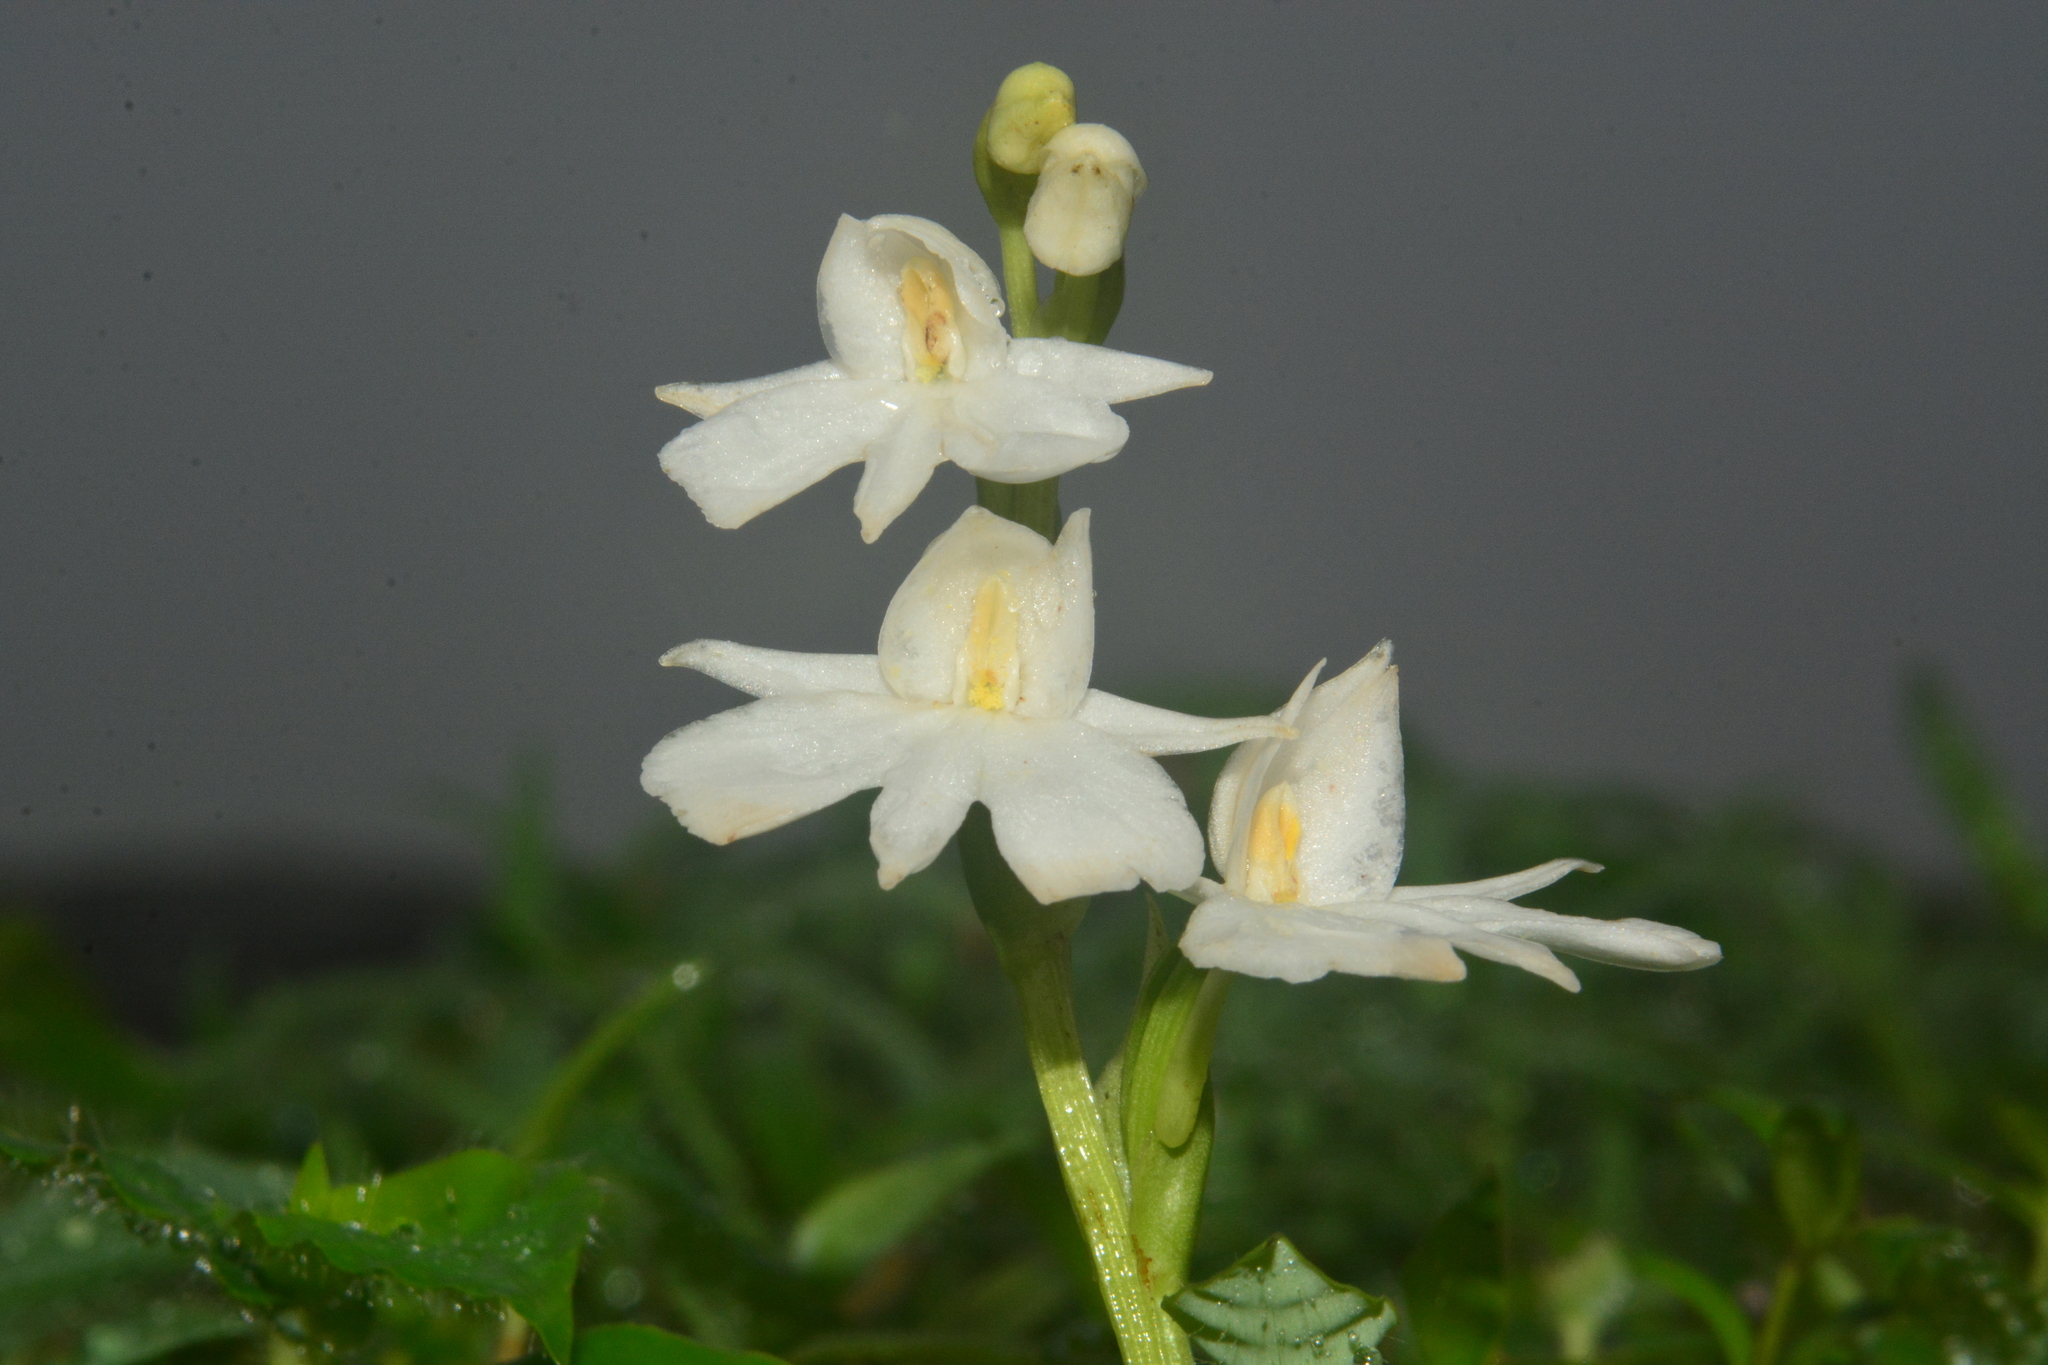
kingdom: Plantae
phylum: Tracheophyta
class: Liliopsida
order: Asparagales
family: Orchidaceae
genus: Habenaria
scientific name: Habenaria suaveolens
